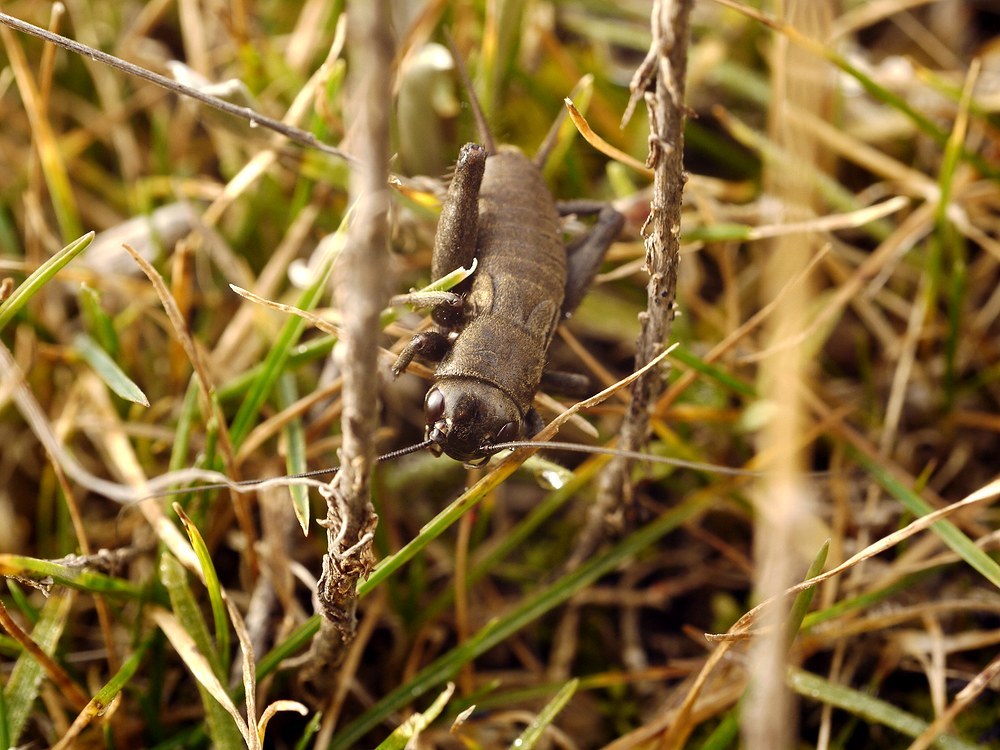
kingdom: Animalia
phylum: Arthropoda
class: Insecta
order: Orthoptera
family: Gryllidae
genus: Gryllus
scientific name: Gryllus campestris
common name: Field cricket
